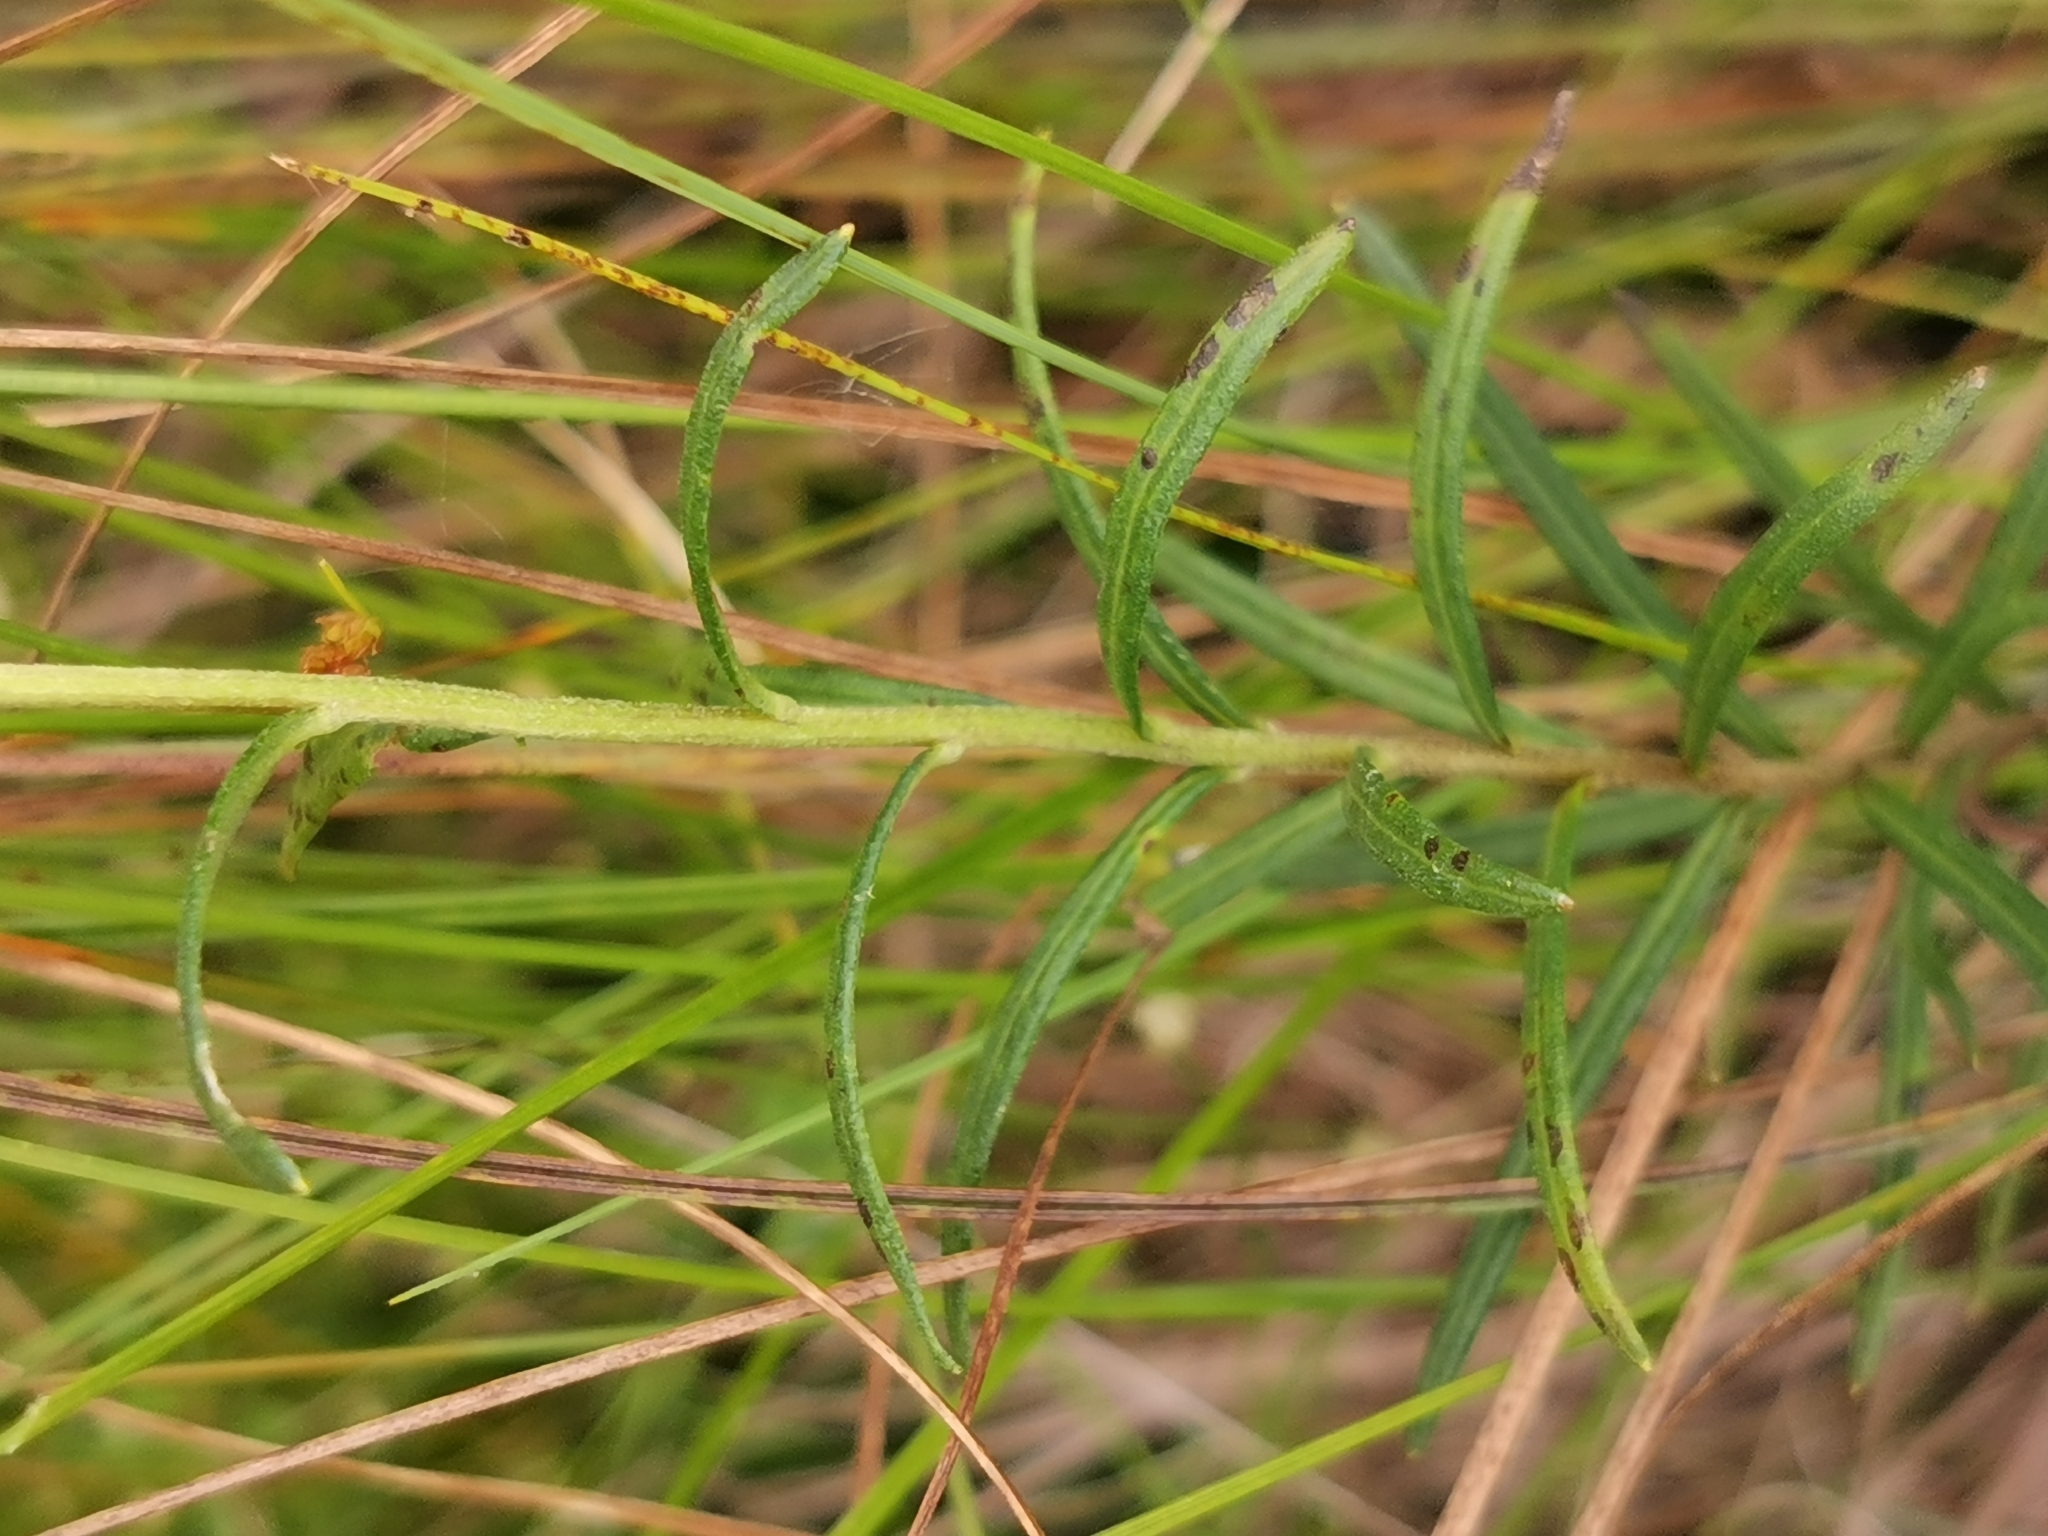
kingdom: Plantae
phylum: Tracheophyta
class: Magnoliopsida
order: Asterales
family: Asteraceae
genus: Leucanthemella
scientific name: Leucanthemella linearis
